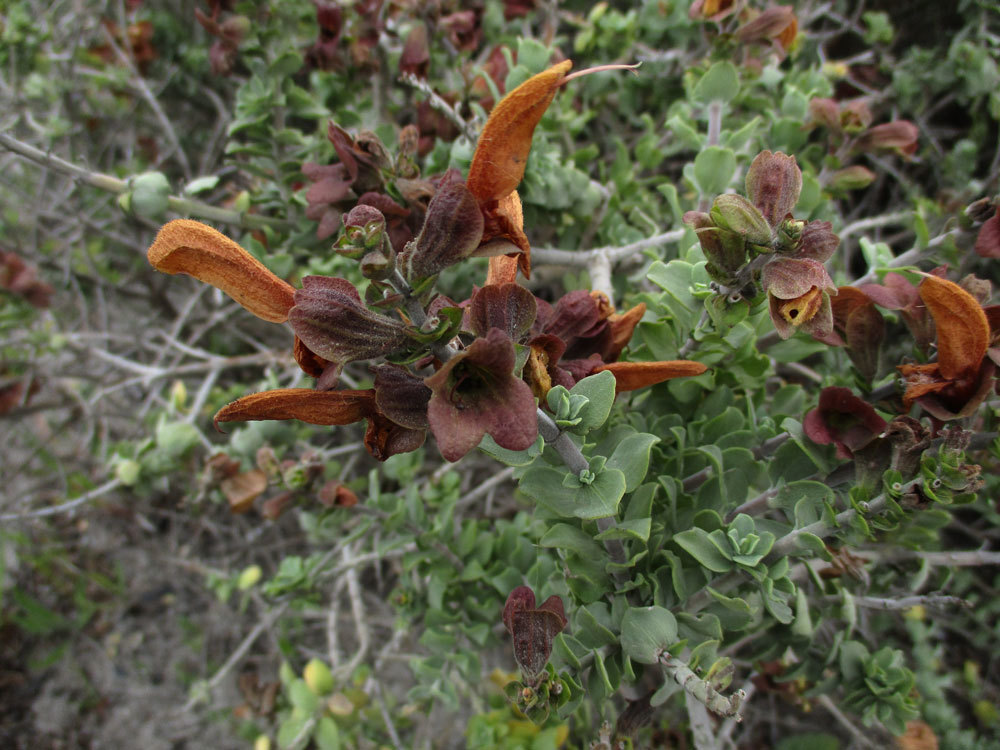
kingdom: Plantae
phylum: Tracheophyta
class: Magnoliopsida
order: Lamiales
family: Lamiaceae
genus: Salvia
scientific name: Salvia aurea
